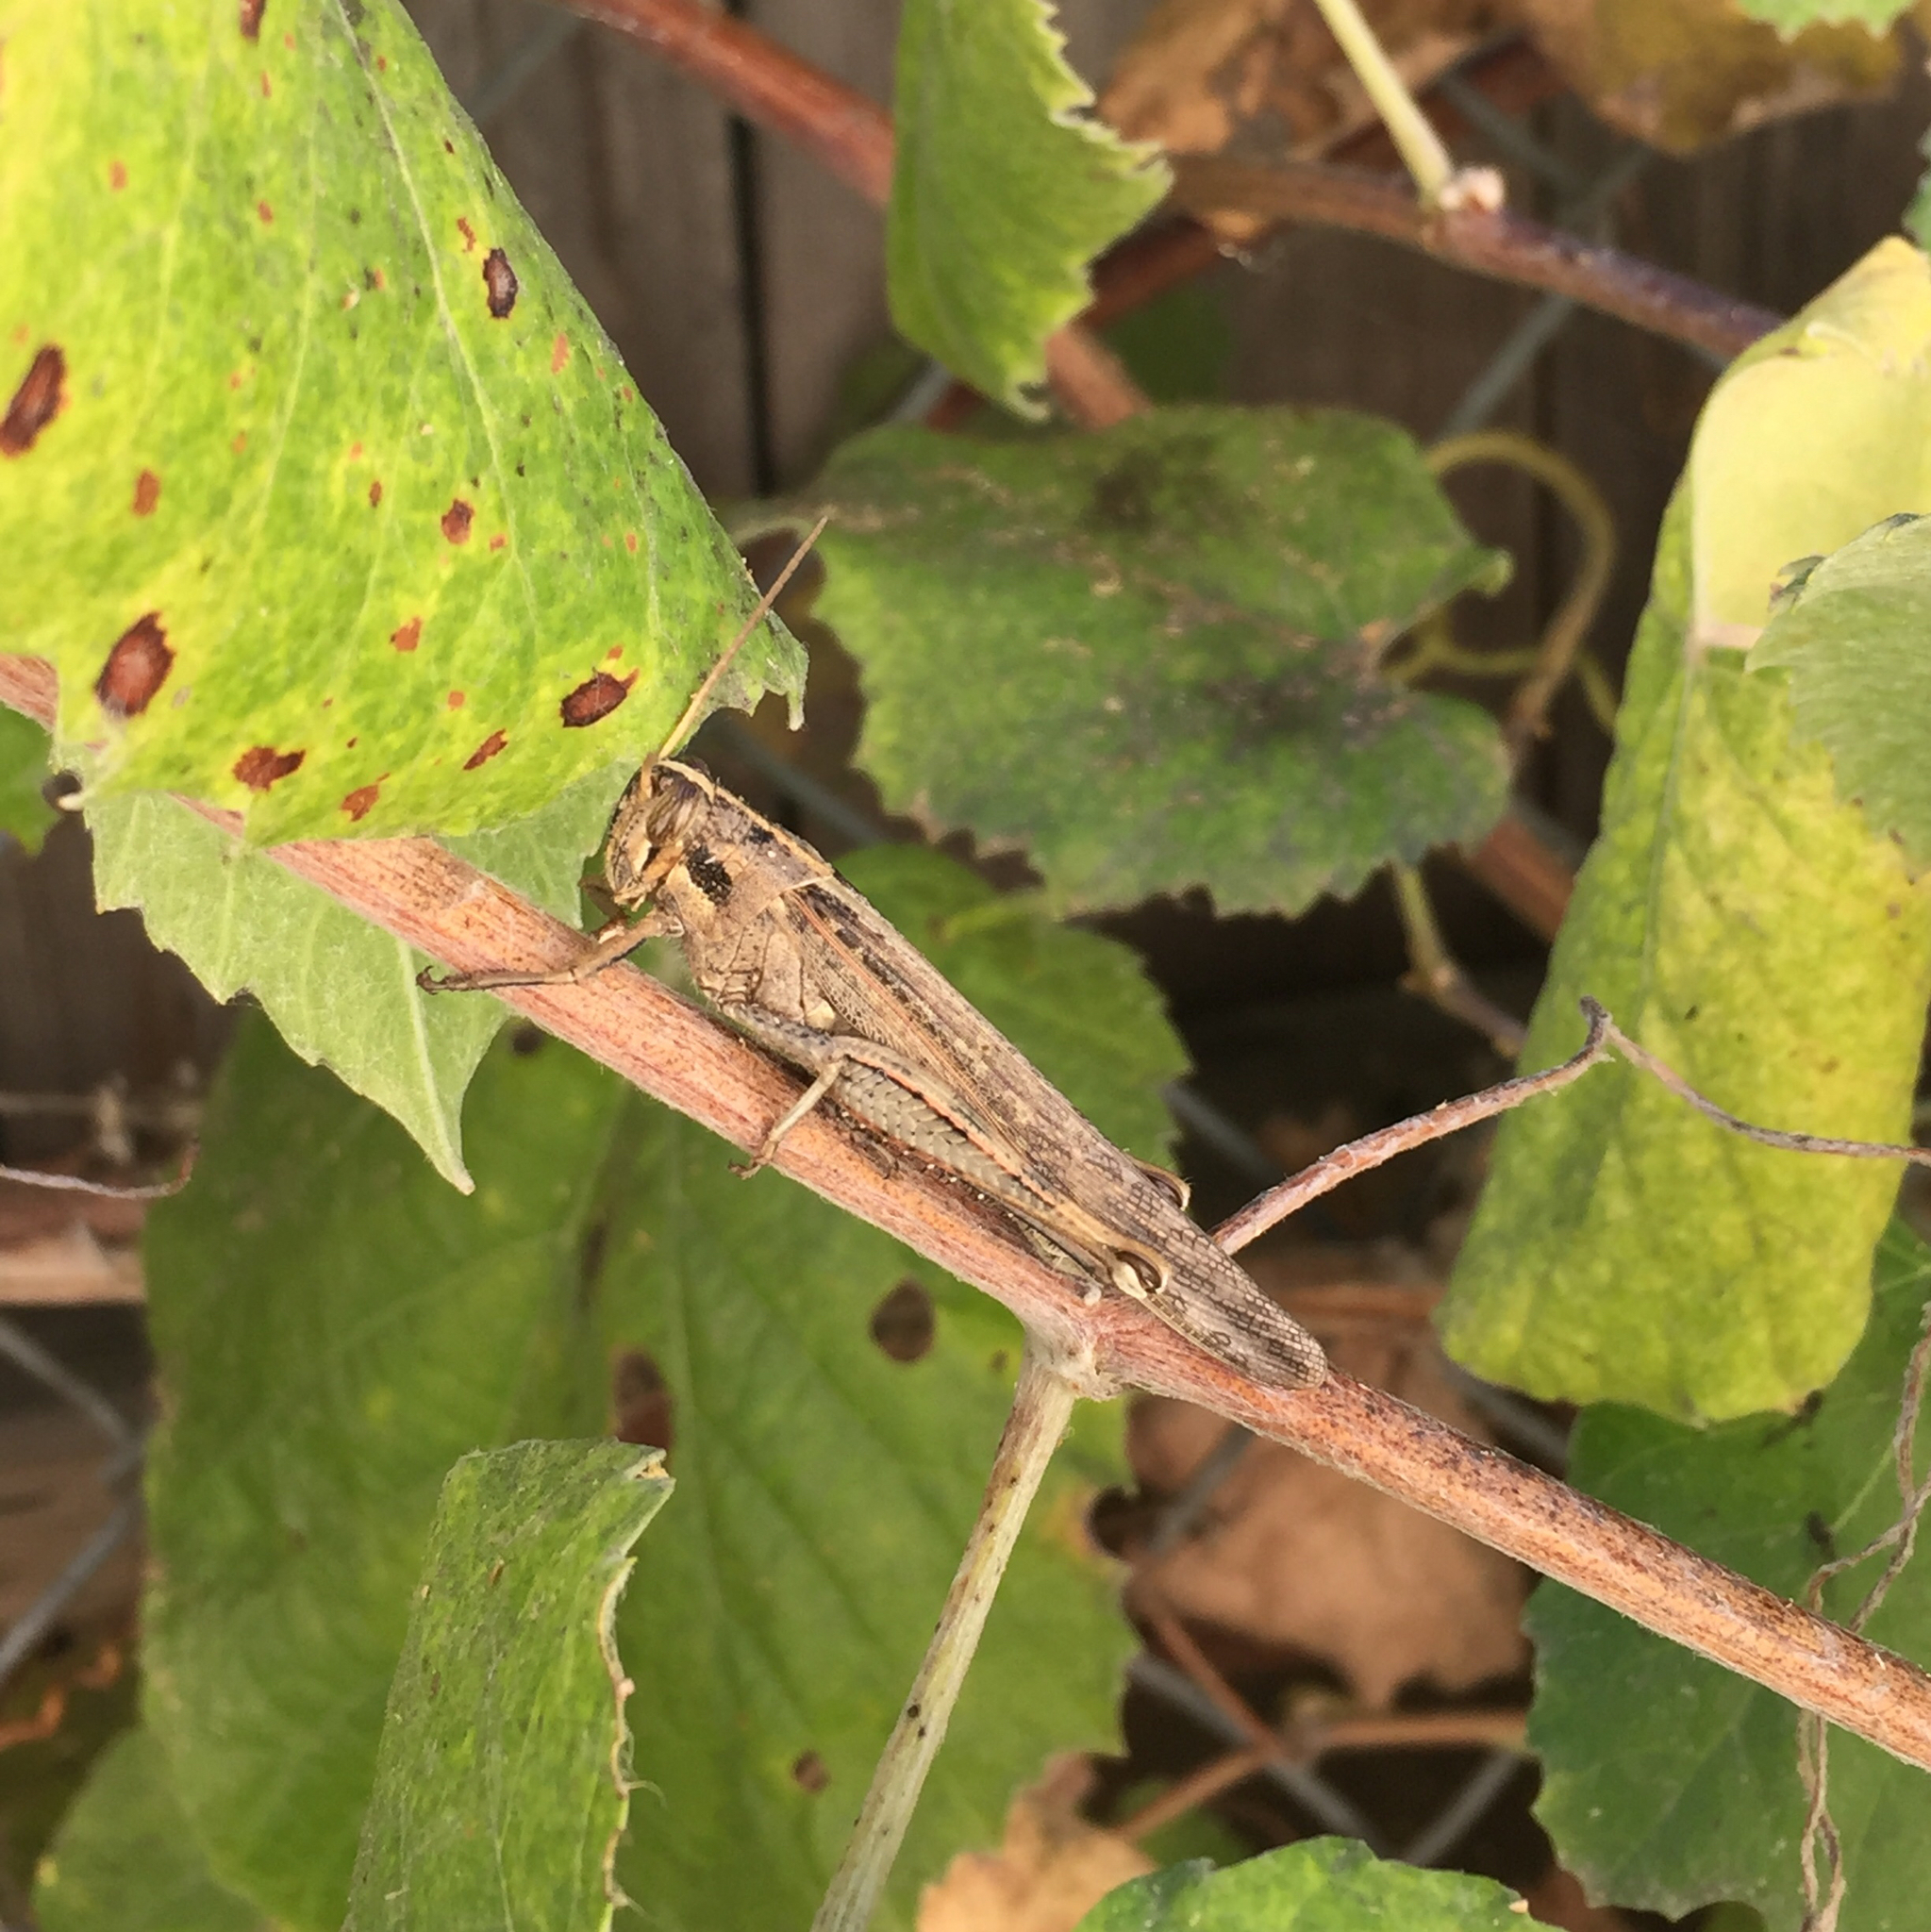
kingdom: Animalia
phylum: Arthropoda
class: Insecta
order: Orthoptera
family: Acrididae
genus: Schistocerca
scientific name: Schistocerca nitens
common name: Vagrant grasshopper
